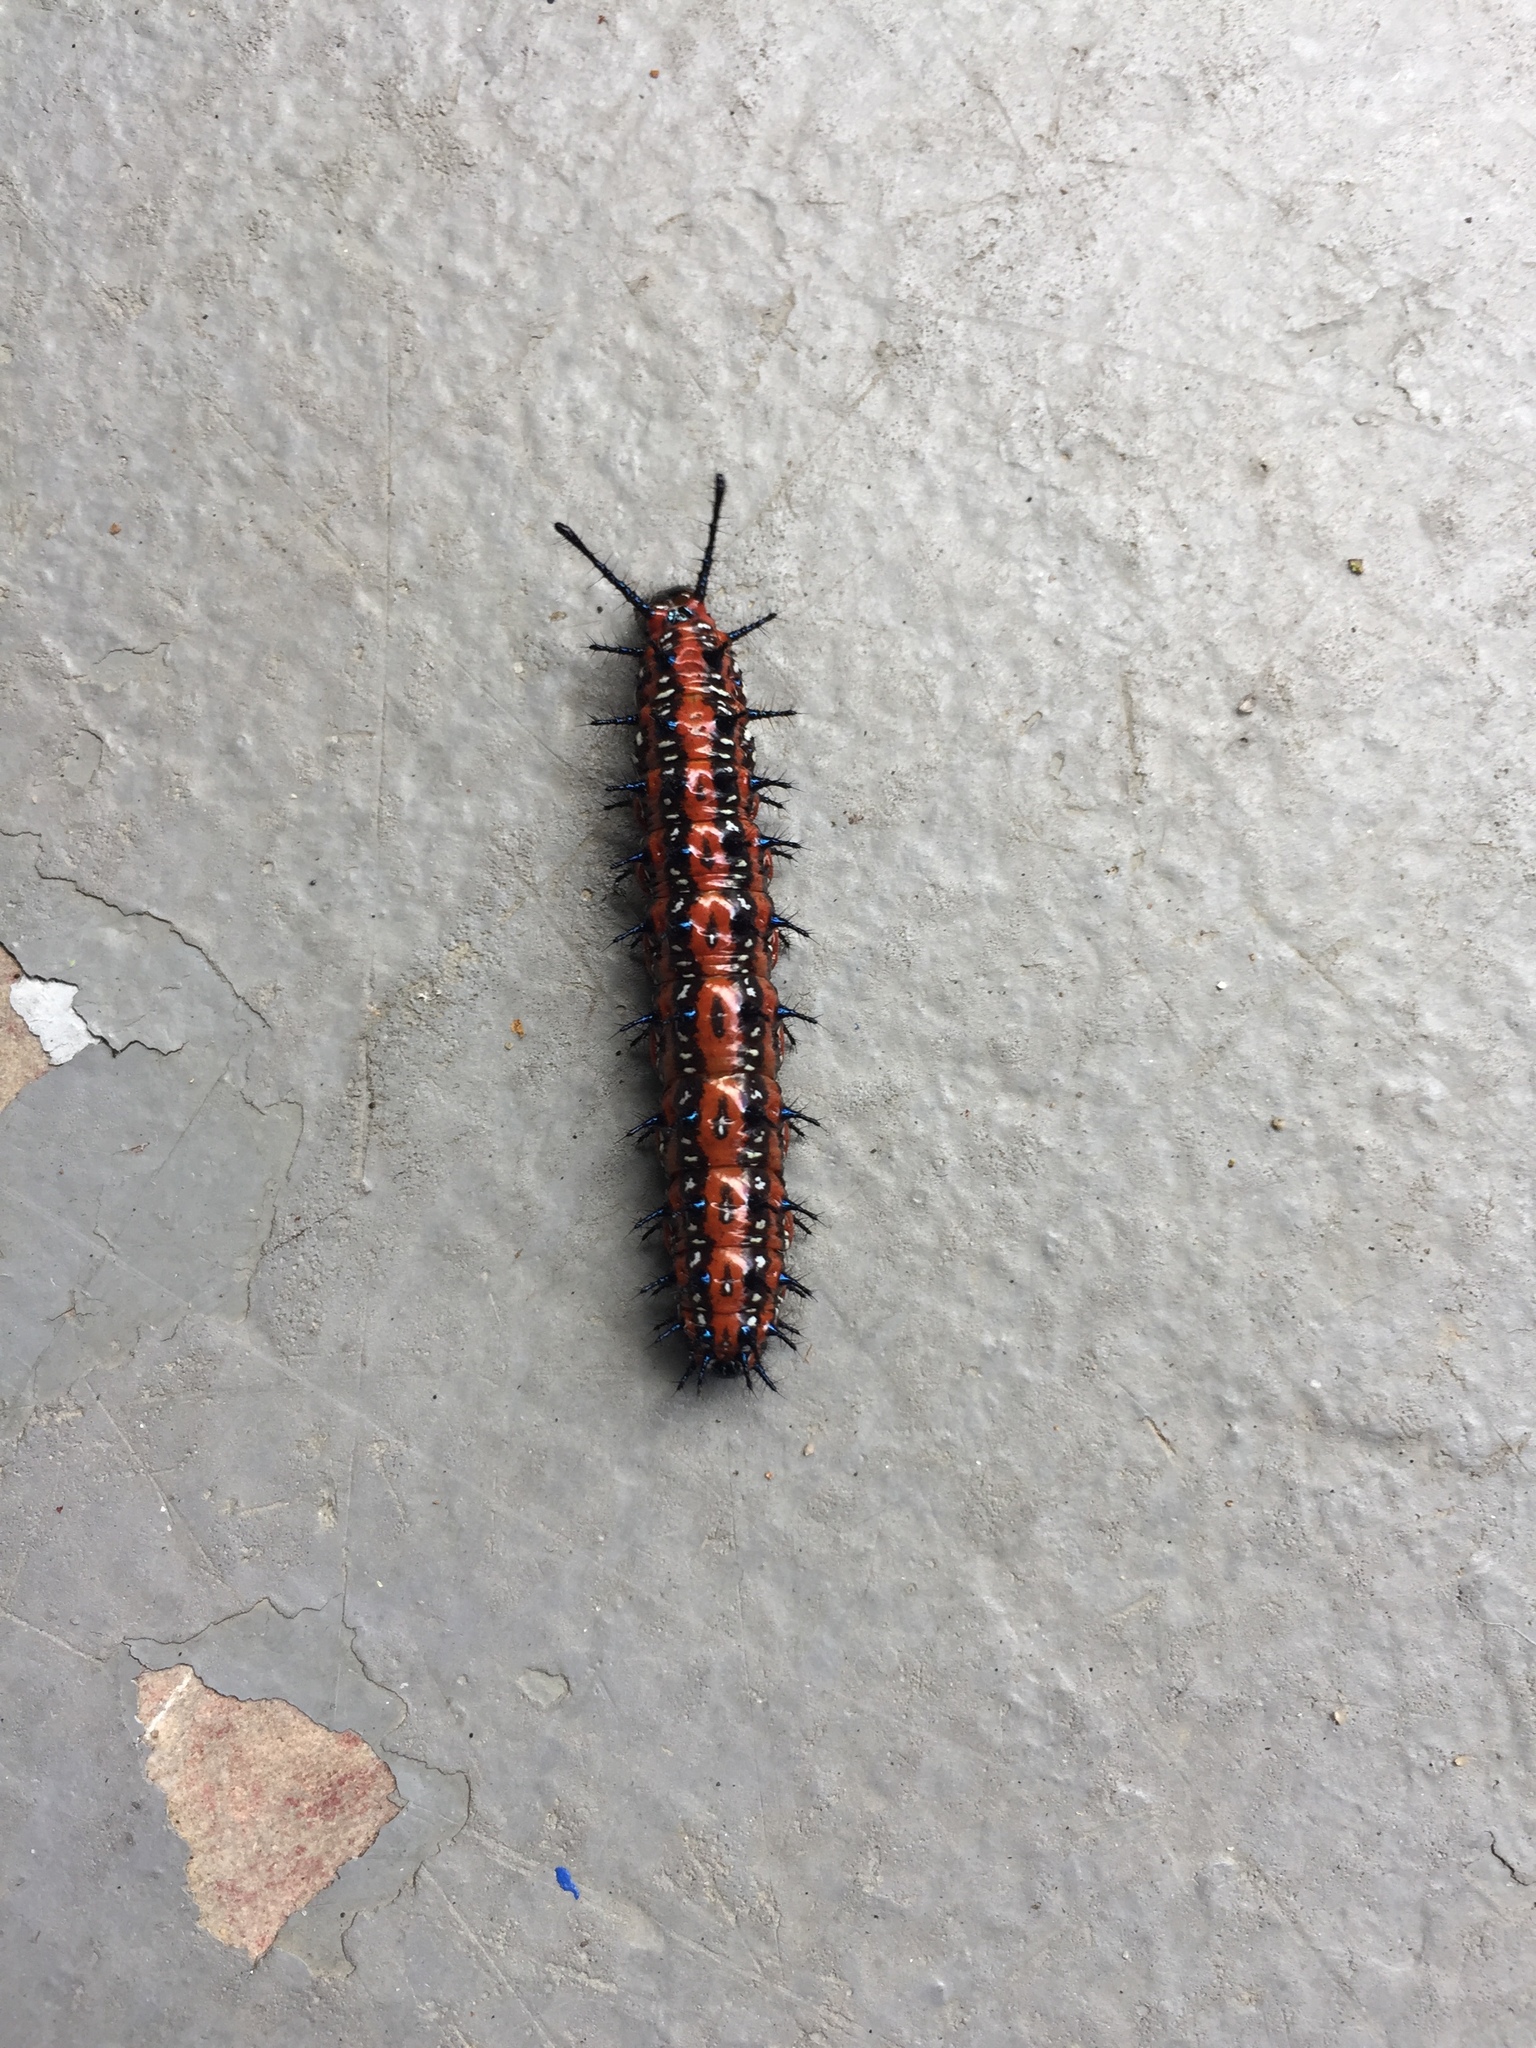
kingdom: Animalia
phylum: Arthropoda
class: Insecta
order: Lepidoptera
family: Nymphalidae
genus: Euptoieta
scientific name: Euptoieta claudia
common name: Variegated fritillary
